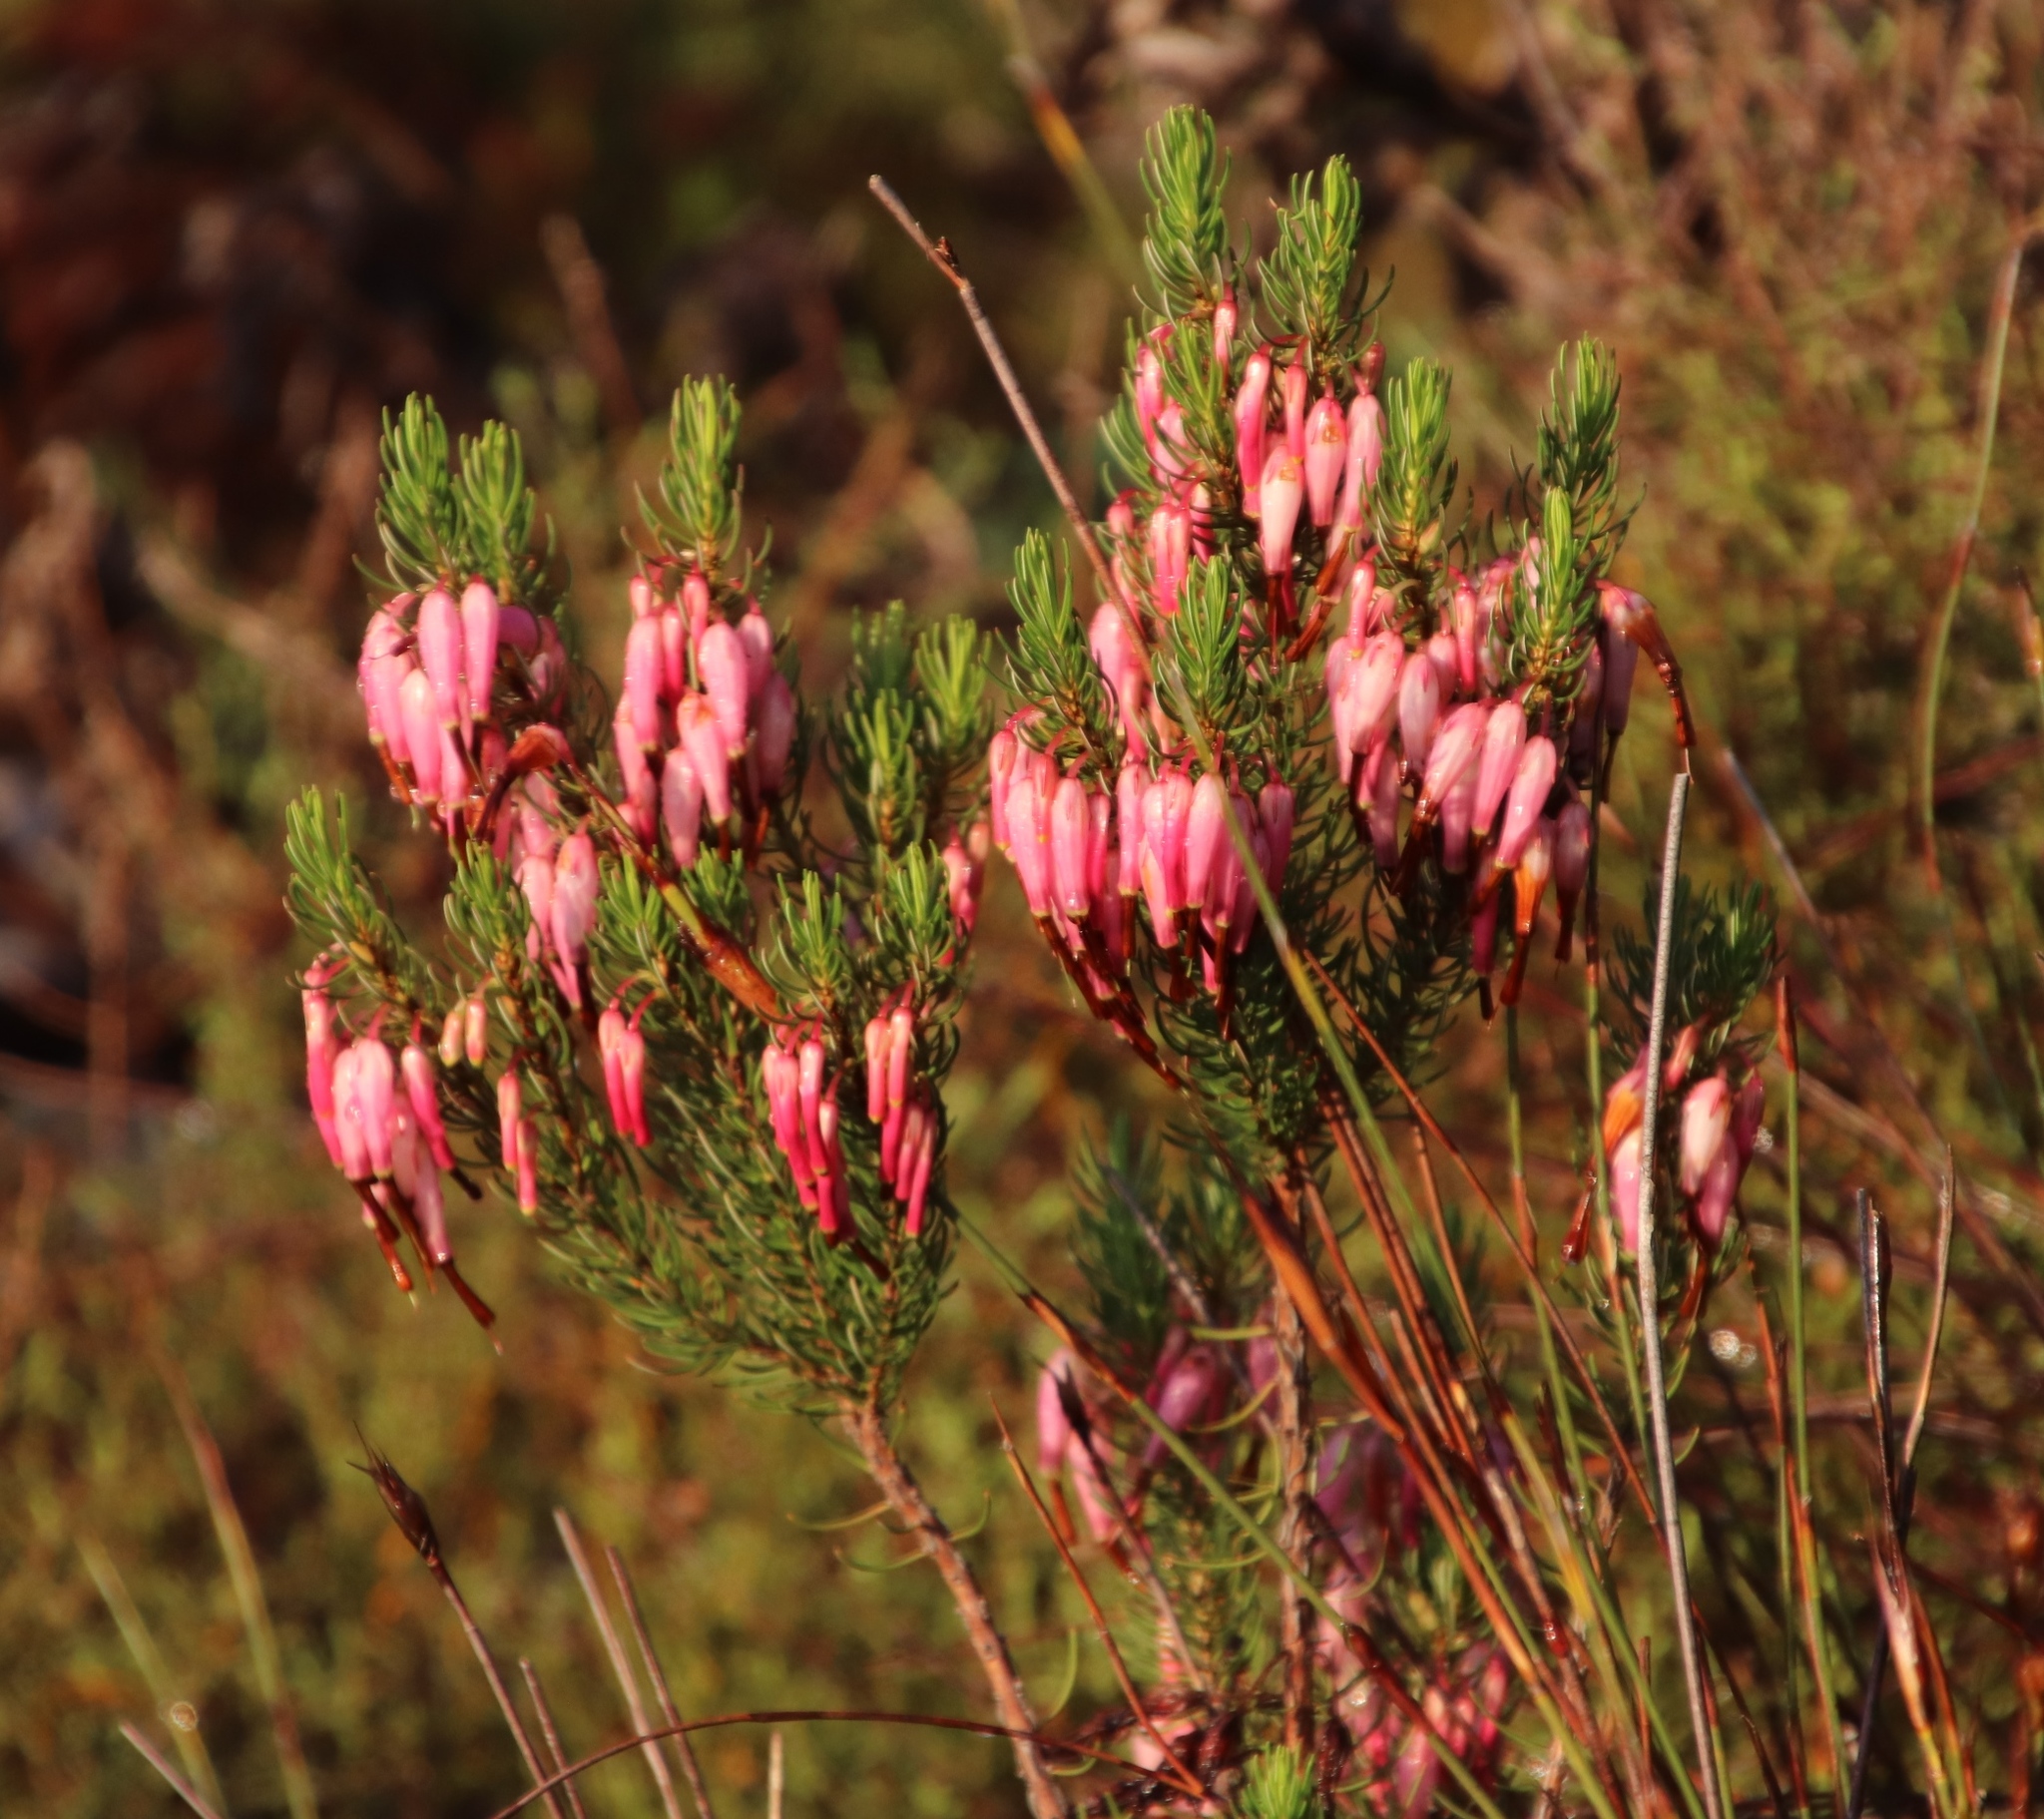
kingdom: Plantae
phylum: Tracheophyta
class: Magnoliopsida
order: Ericales
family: Ericaceae
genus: Erica
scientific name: Erica plukenetii
